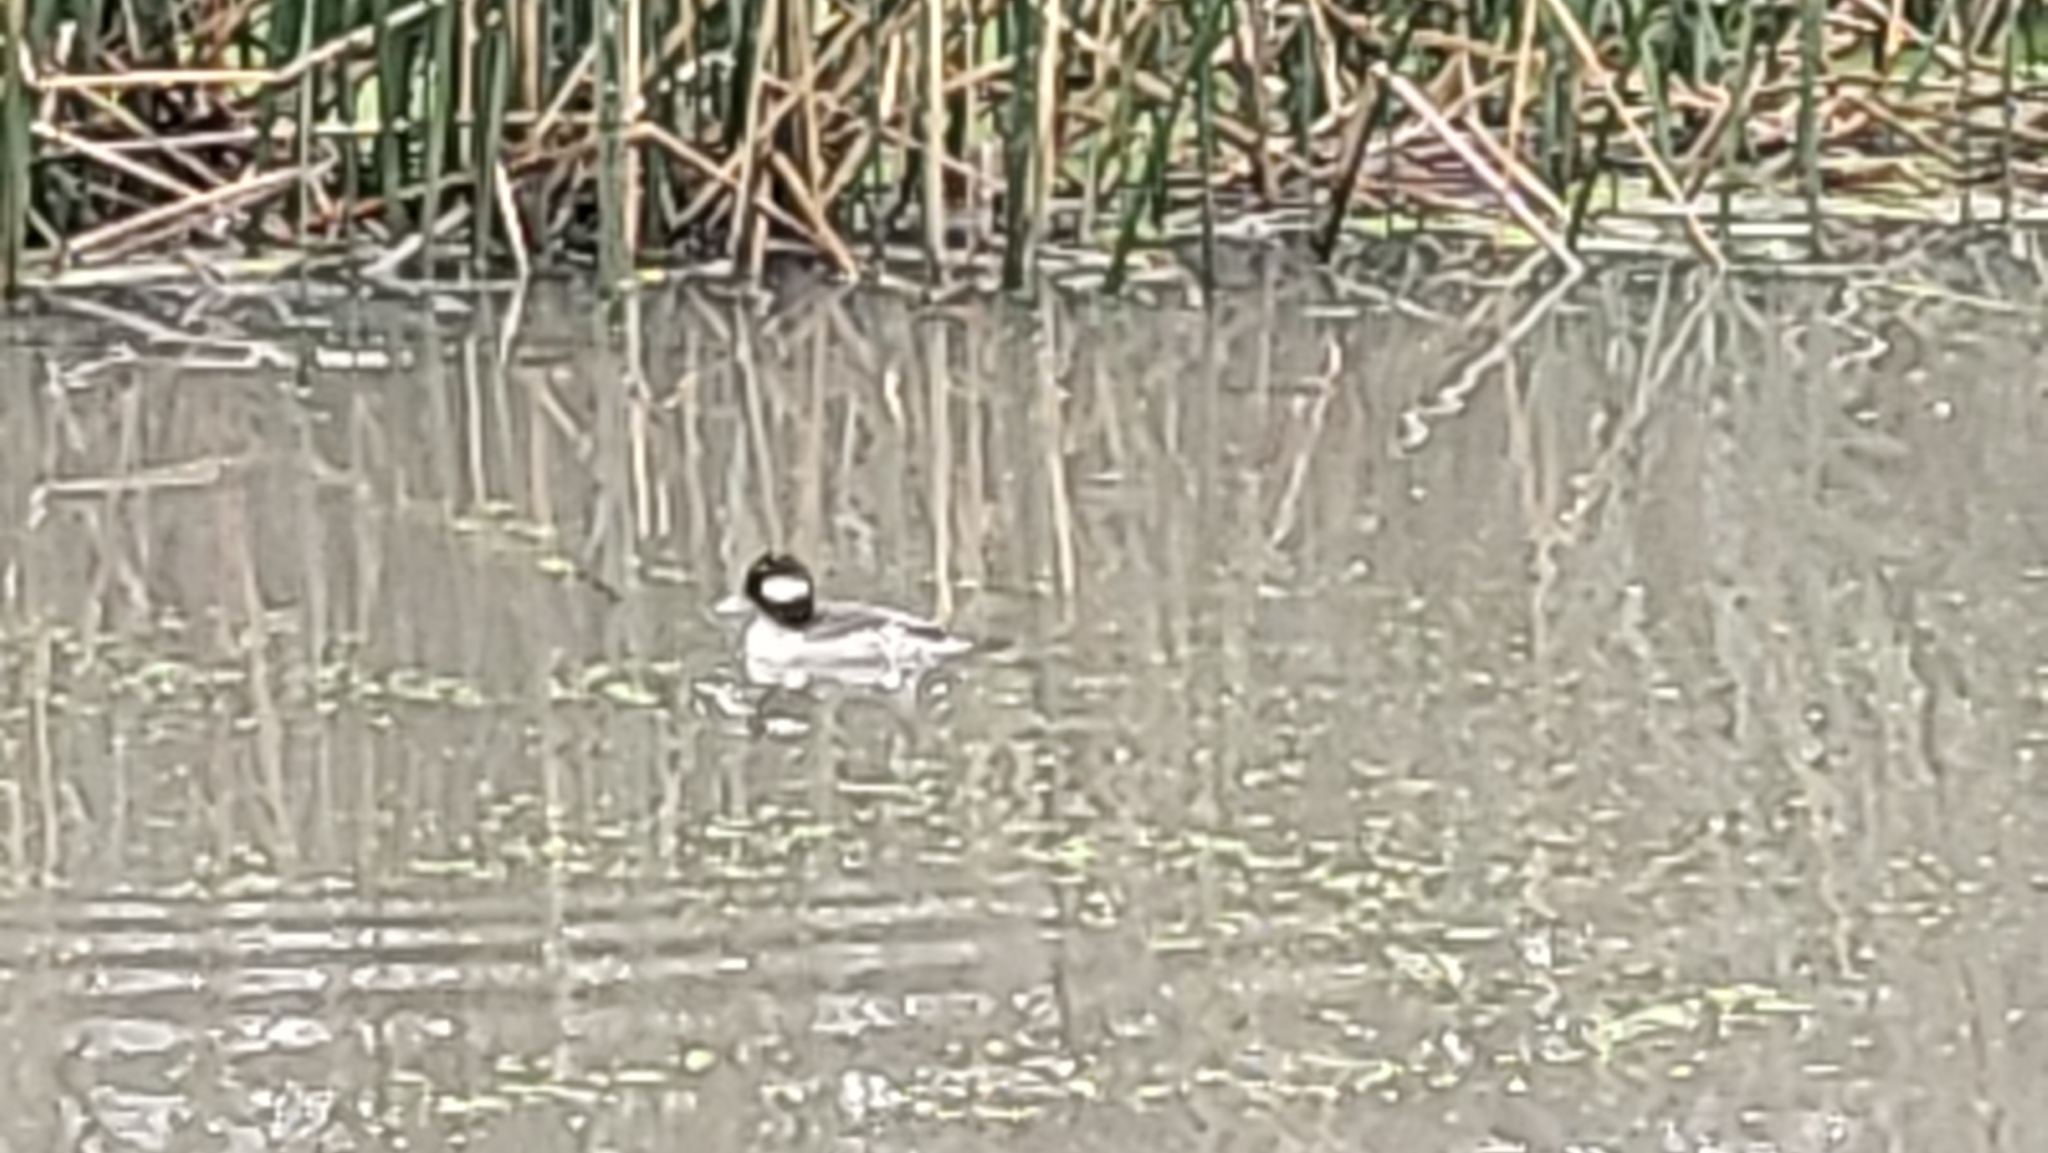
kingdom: Animalia
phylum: Chordata
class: Aves
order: Anseriformes
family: Anatidae
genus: Bucephala
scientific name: Bucephala albeola
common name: Bufflehead
